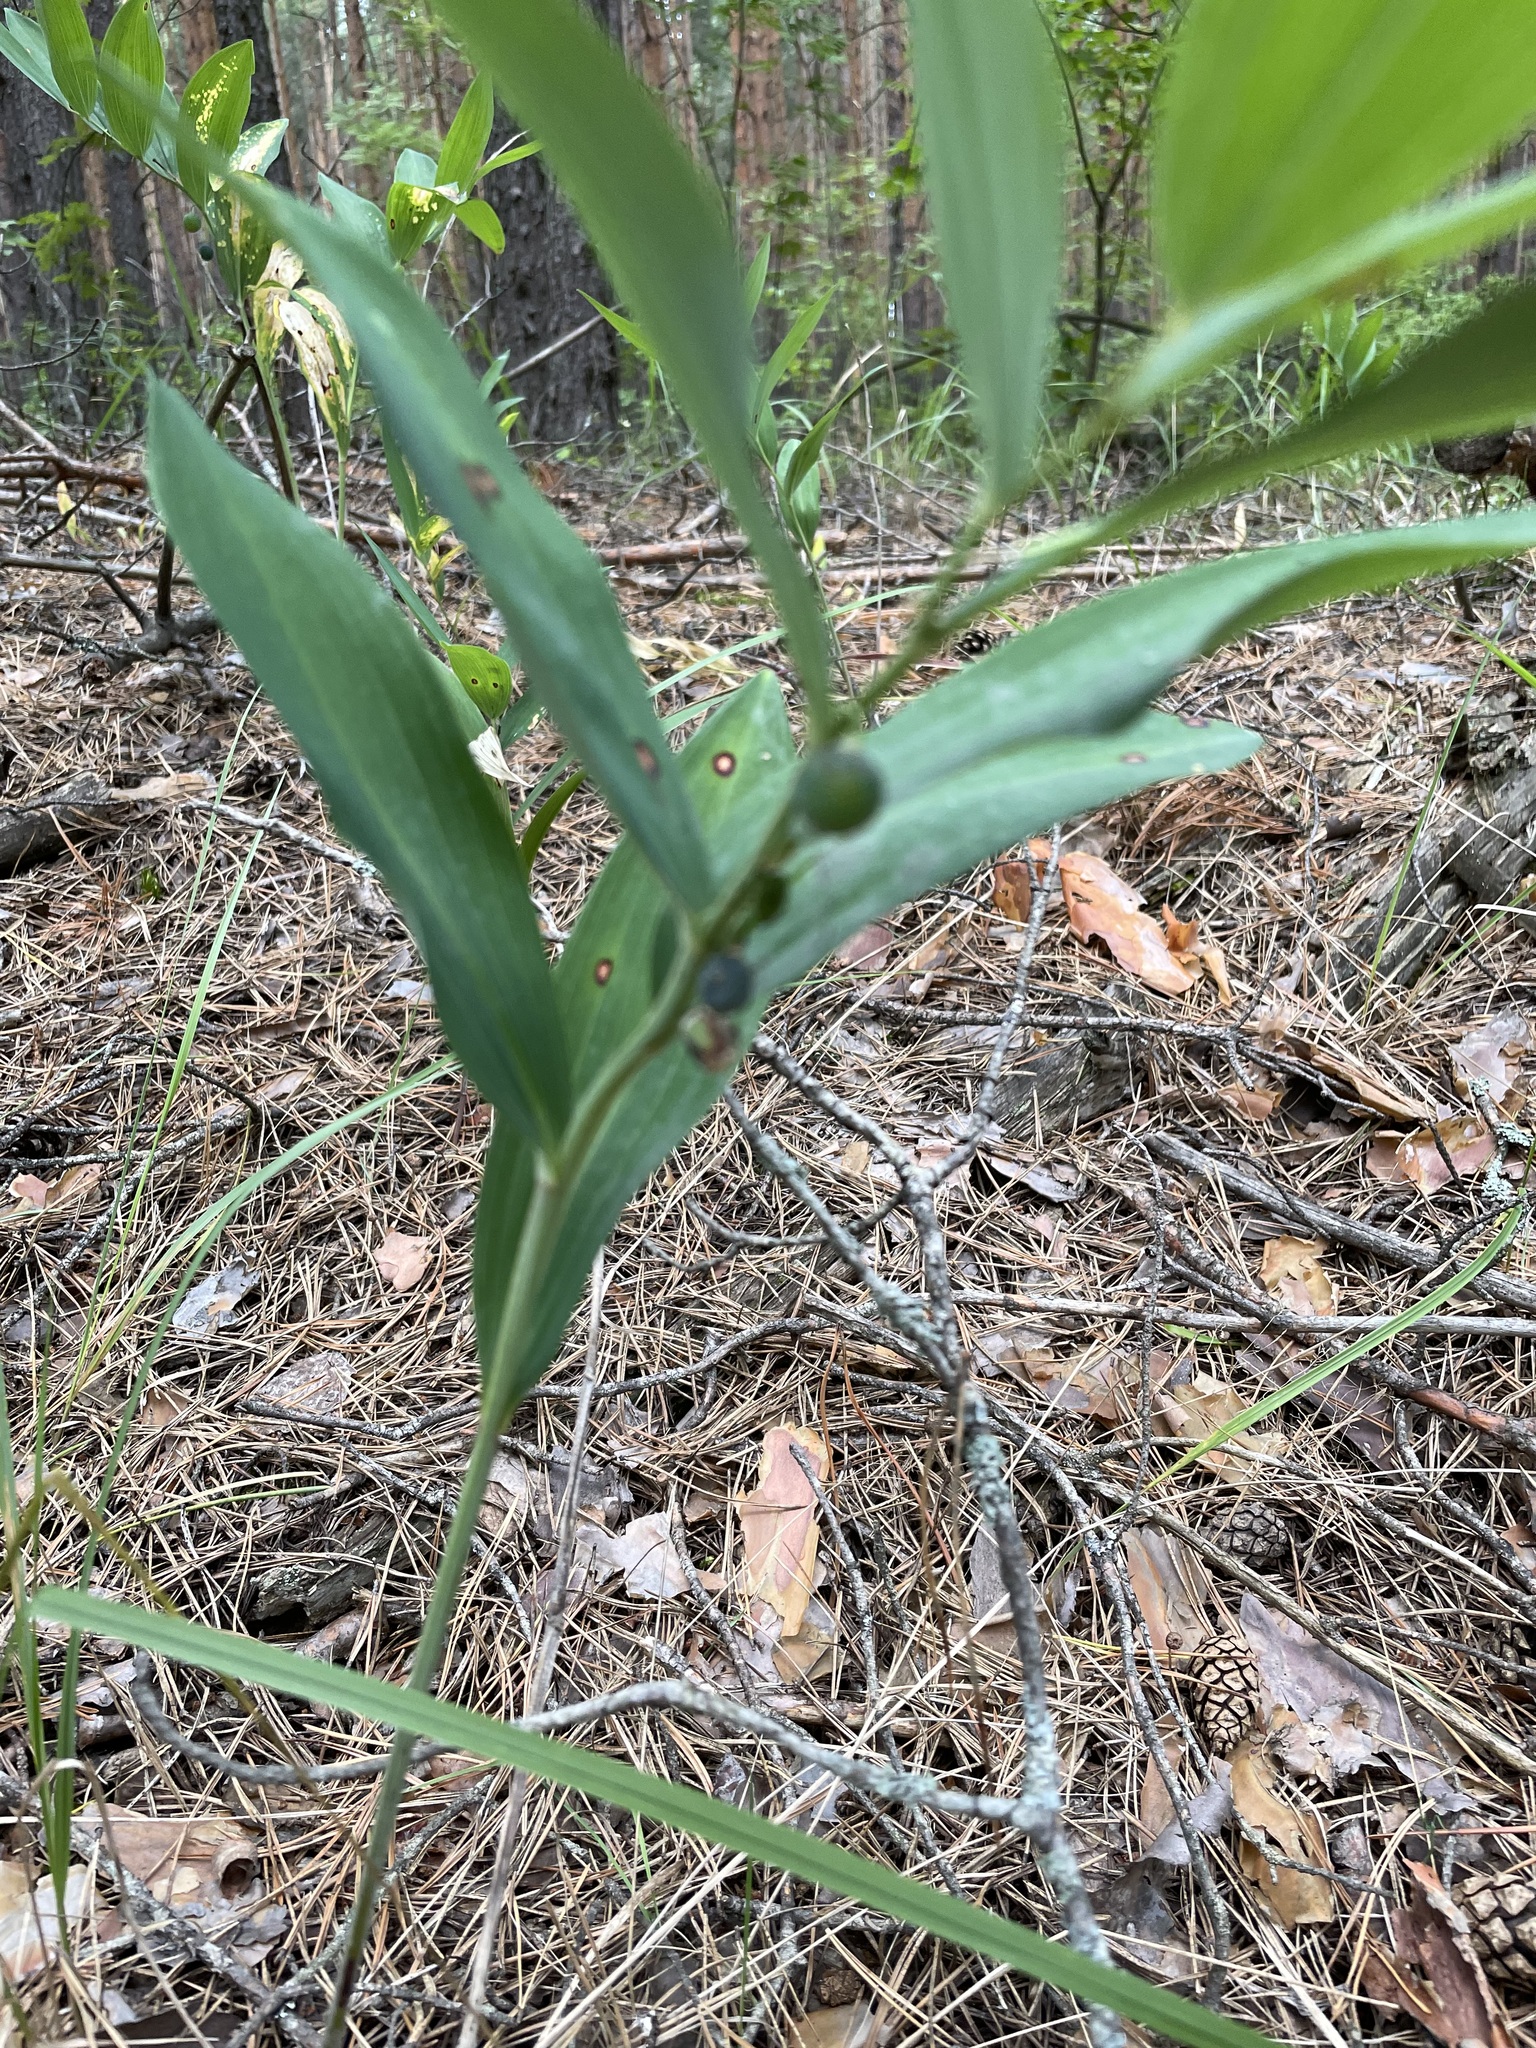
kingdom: Plantae
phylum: Tracheophyta
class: Liliopsida
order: Asparagales
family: Asparagaceae
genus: Polygonatum
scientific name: Polygonatum odoratum
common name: Angular solomon's-seal
